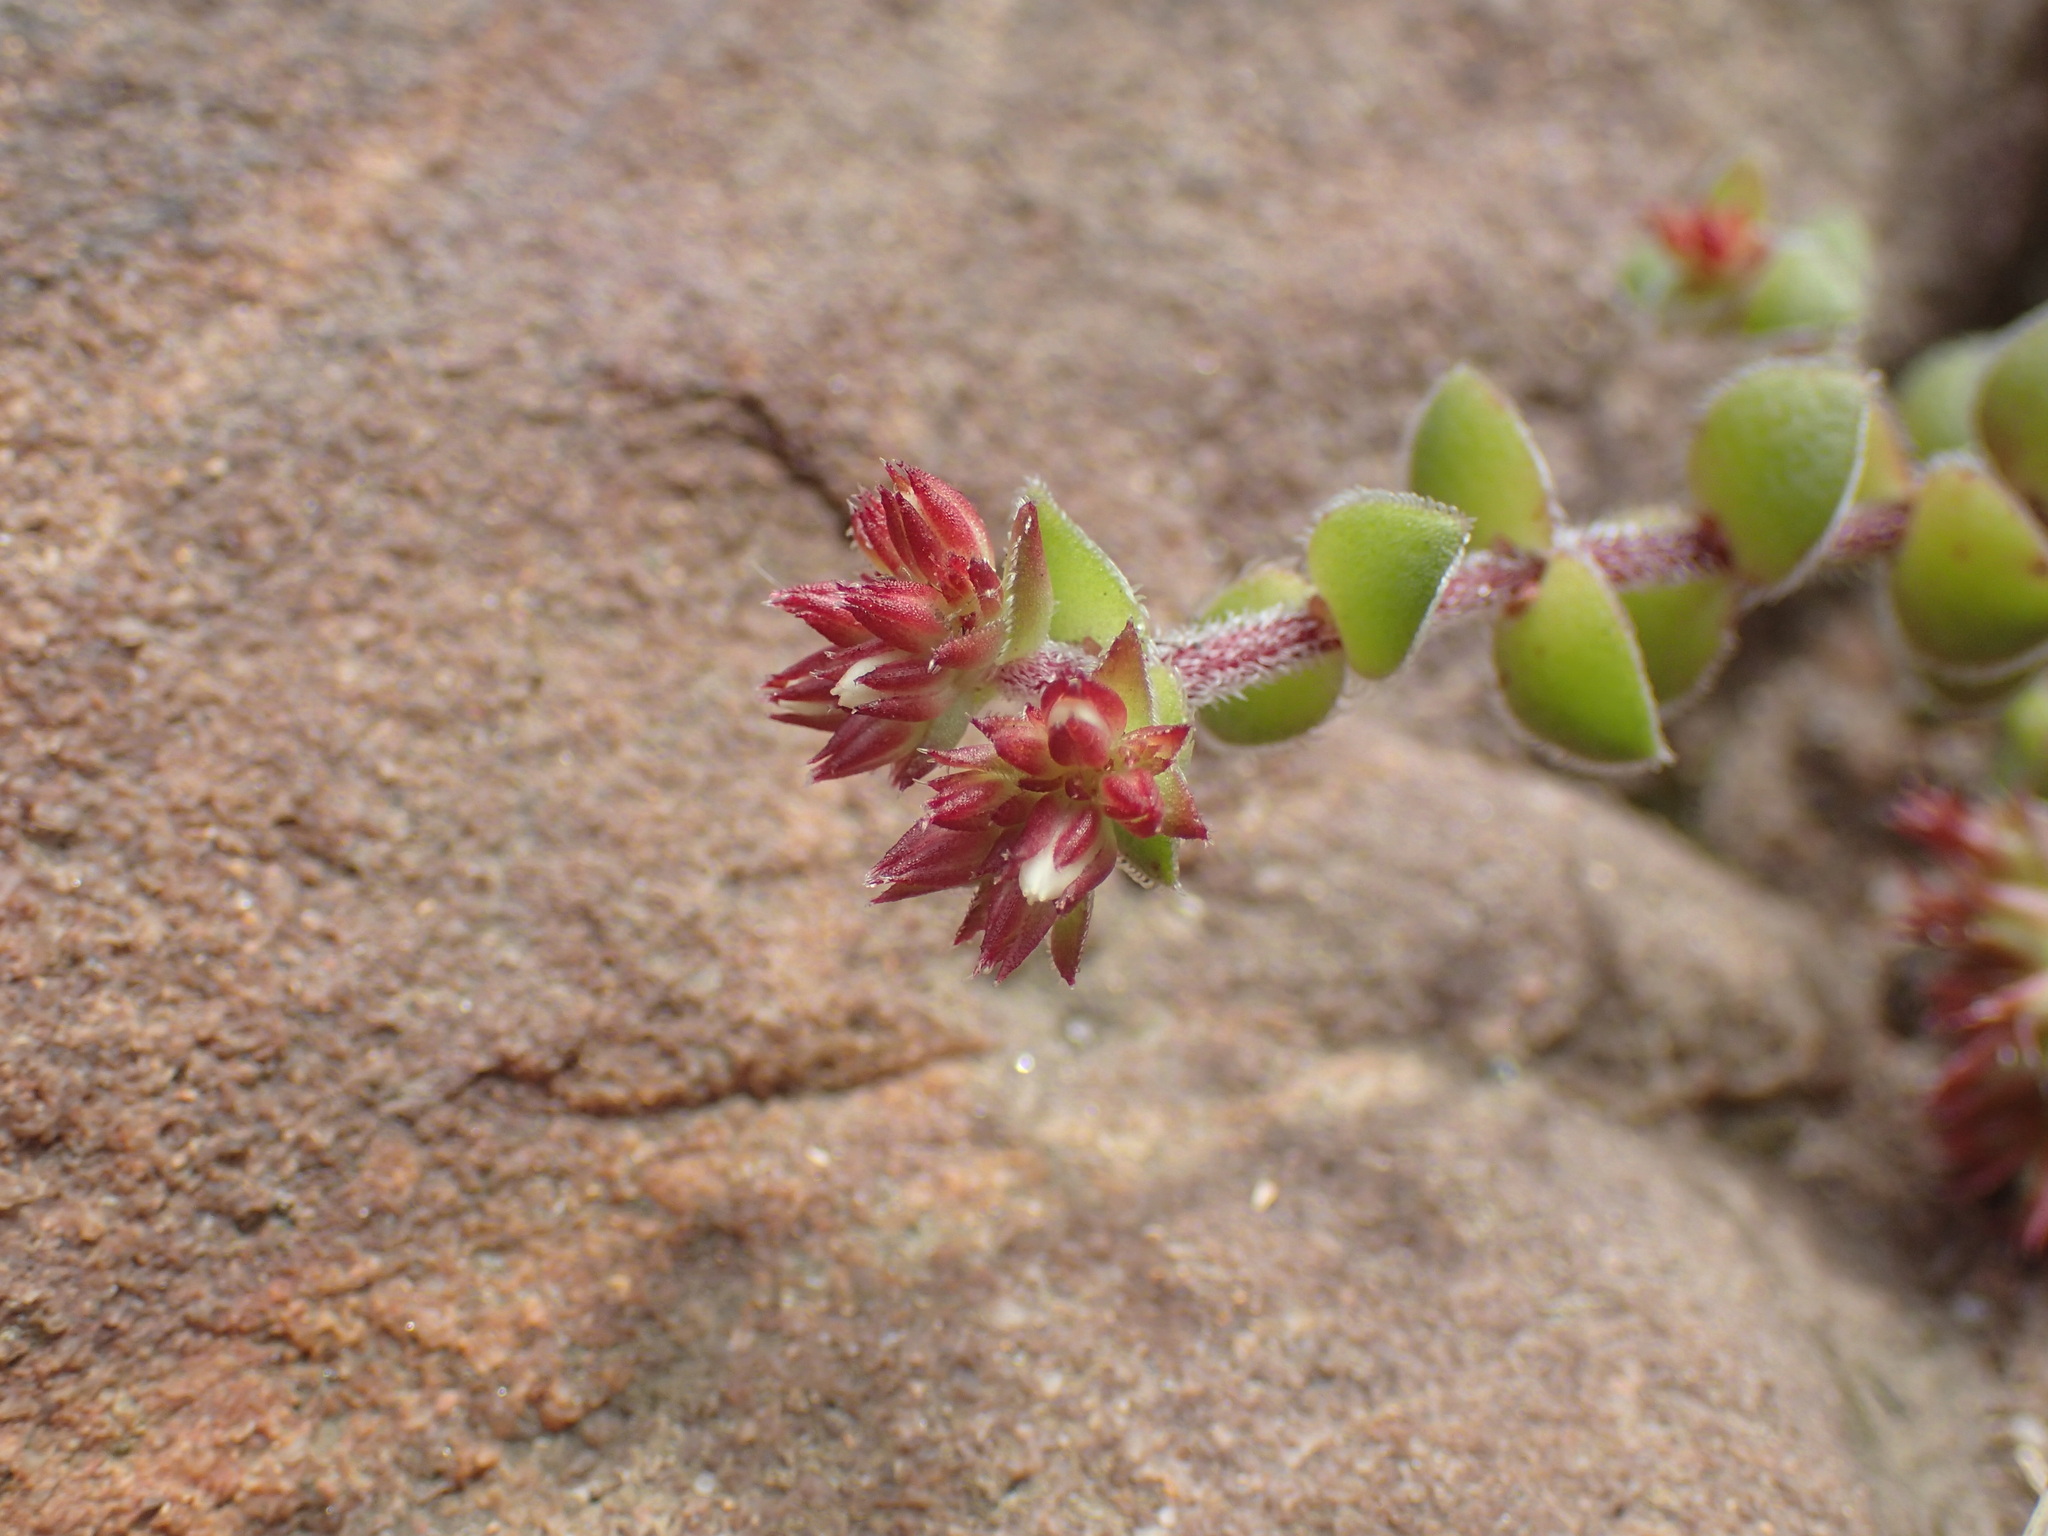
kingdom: Plantae
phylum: Tracheophyta
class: Magnoliopsida
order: Saxifragales
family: Crassulaceae
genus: Crassula
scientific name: Crassula obovata
